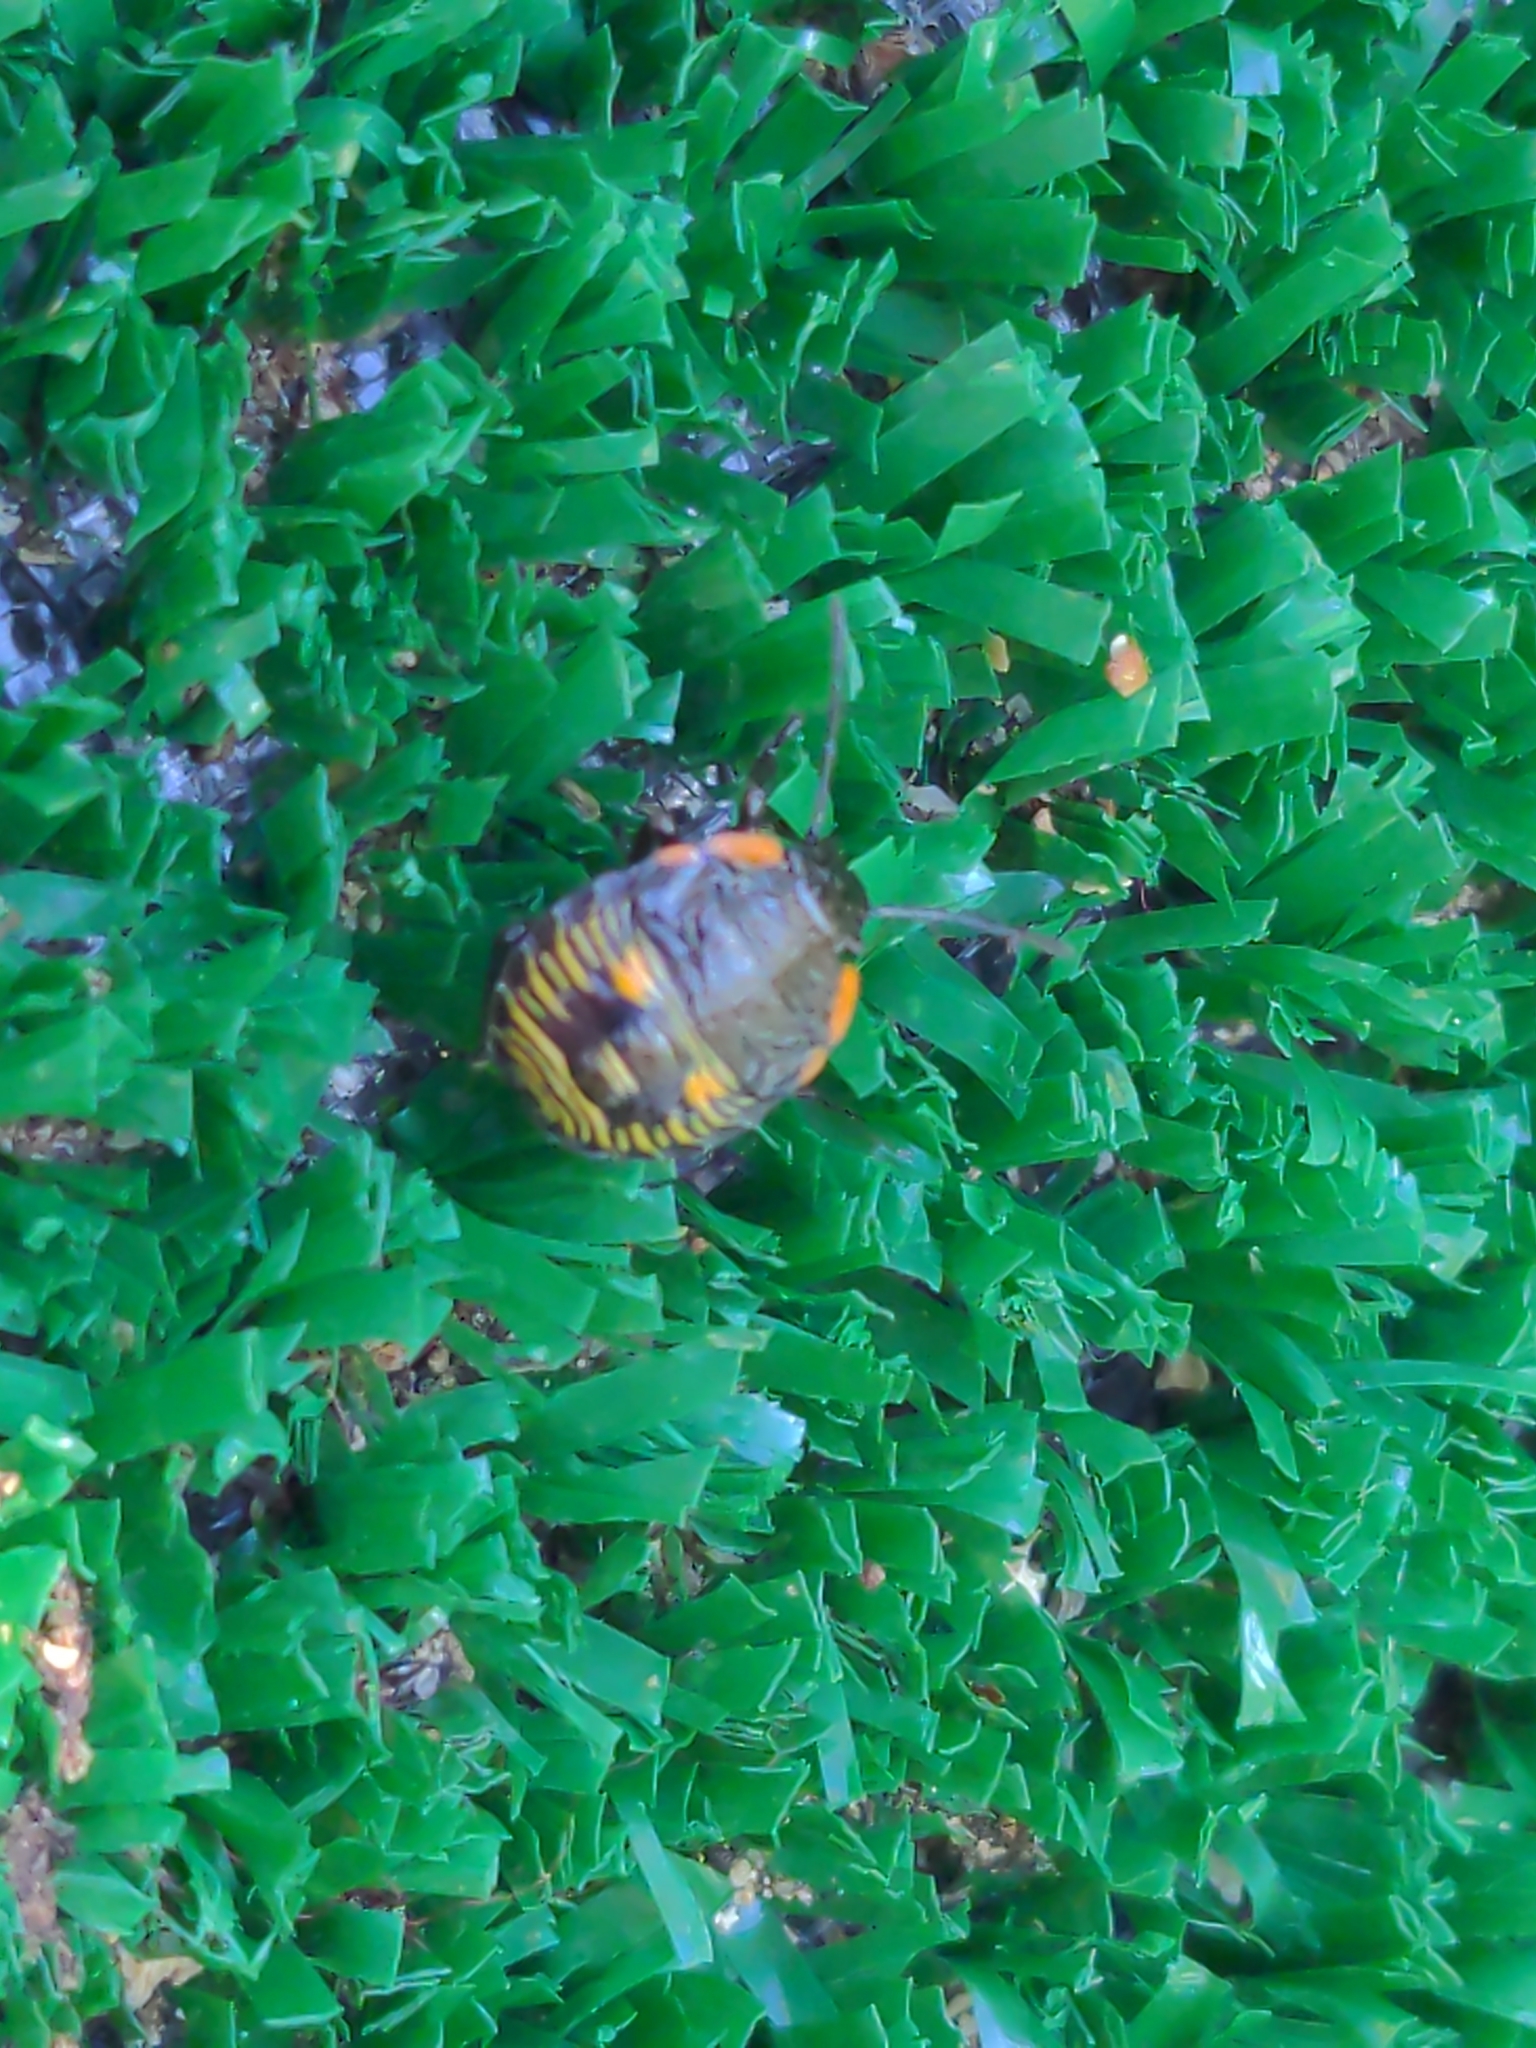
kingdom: Animalia
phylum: Arthropoda
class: Insecta
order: Hemiptera
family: Pentatomidae
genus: Chinavia
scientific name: Chinavia hilaris
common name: Green stink bug
